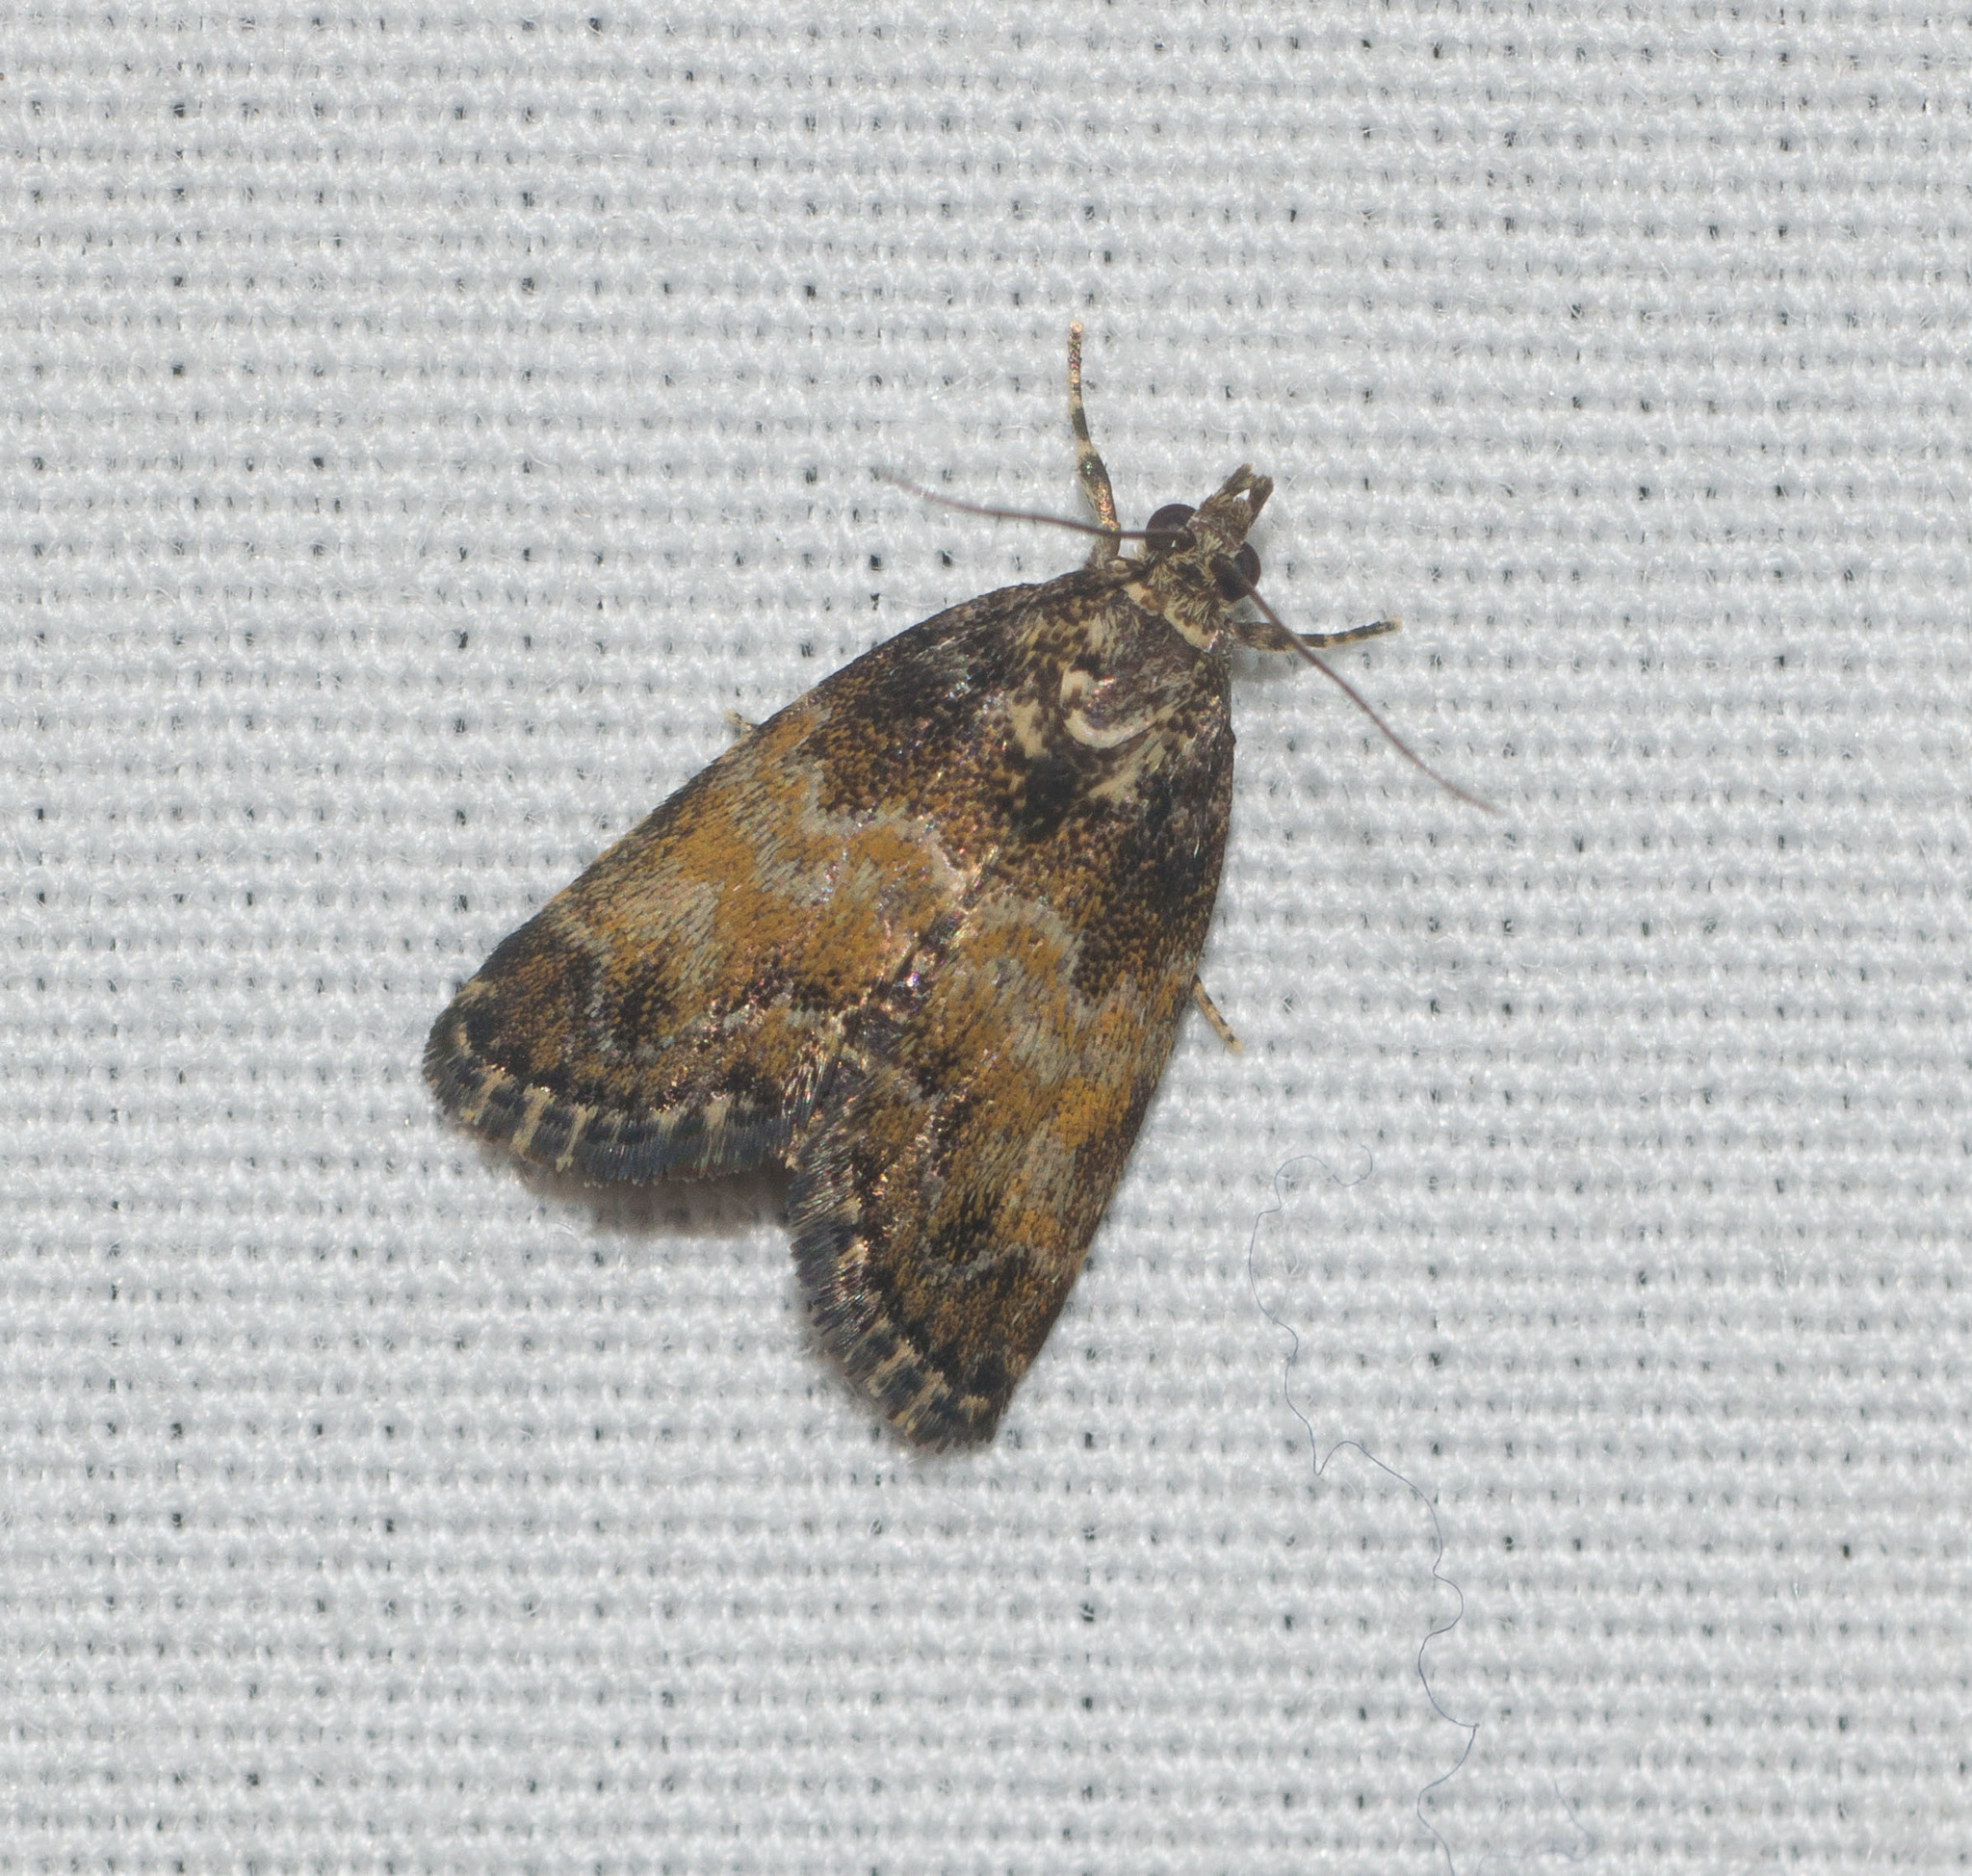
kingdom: Animalia
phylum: Arthropoda
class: Insecta
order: Lepidoptera
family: Crambidae
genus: Mestolobes
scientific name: Mestolobes abnormis
